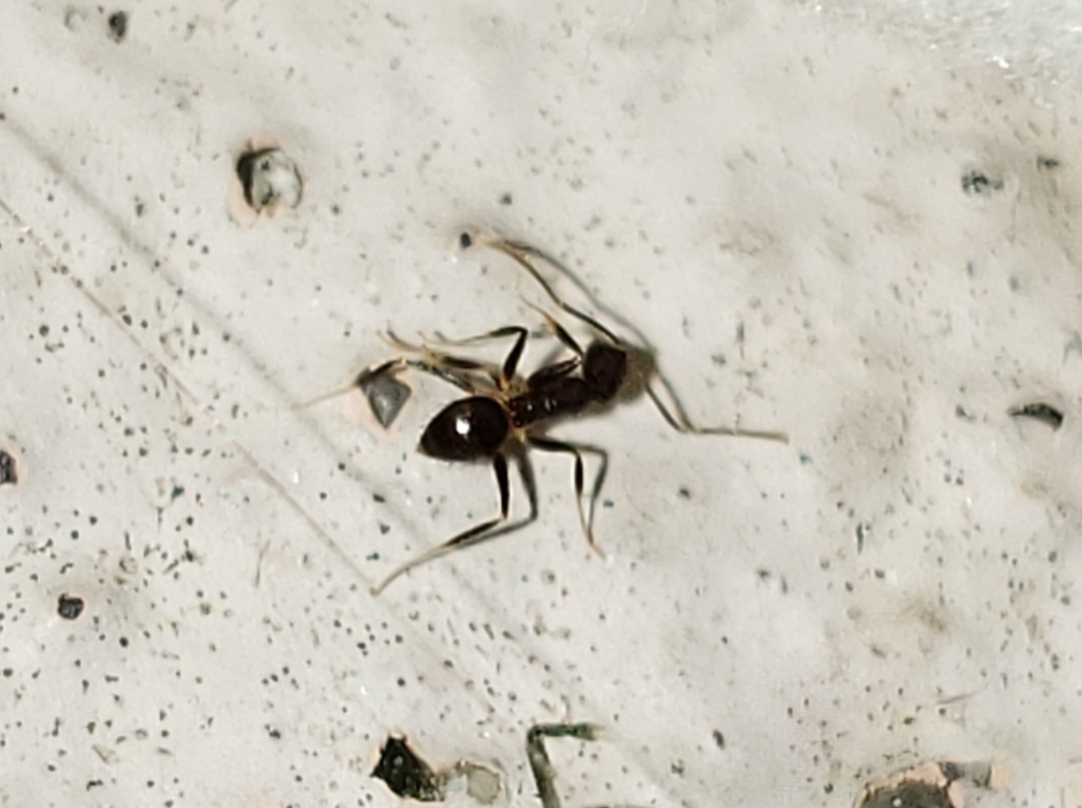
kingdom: Animalia
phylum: Arthropoda
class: Insecta
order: Hymenoptera
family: Formicidae
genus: Nylanderia
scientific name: Nylanderia steinheili
